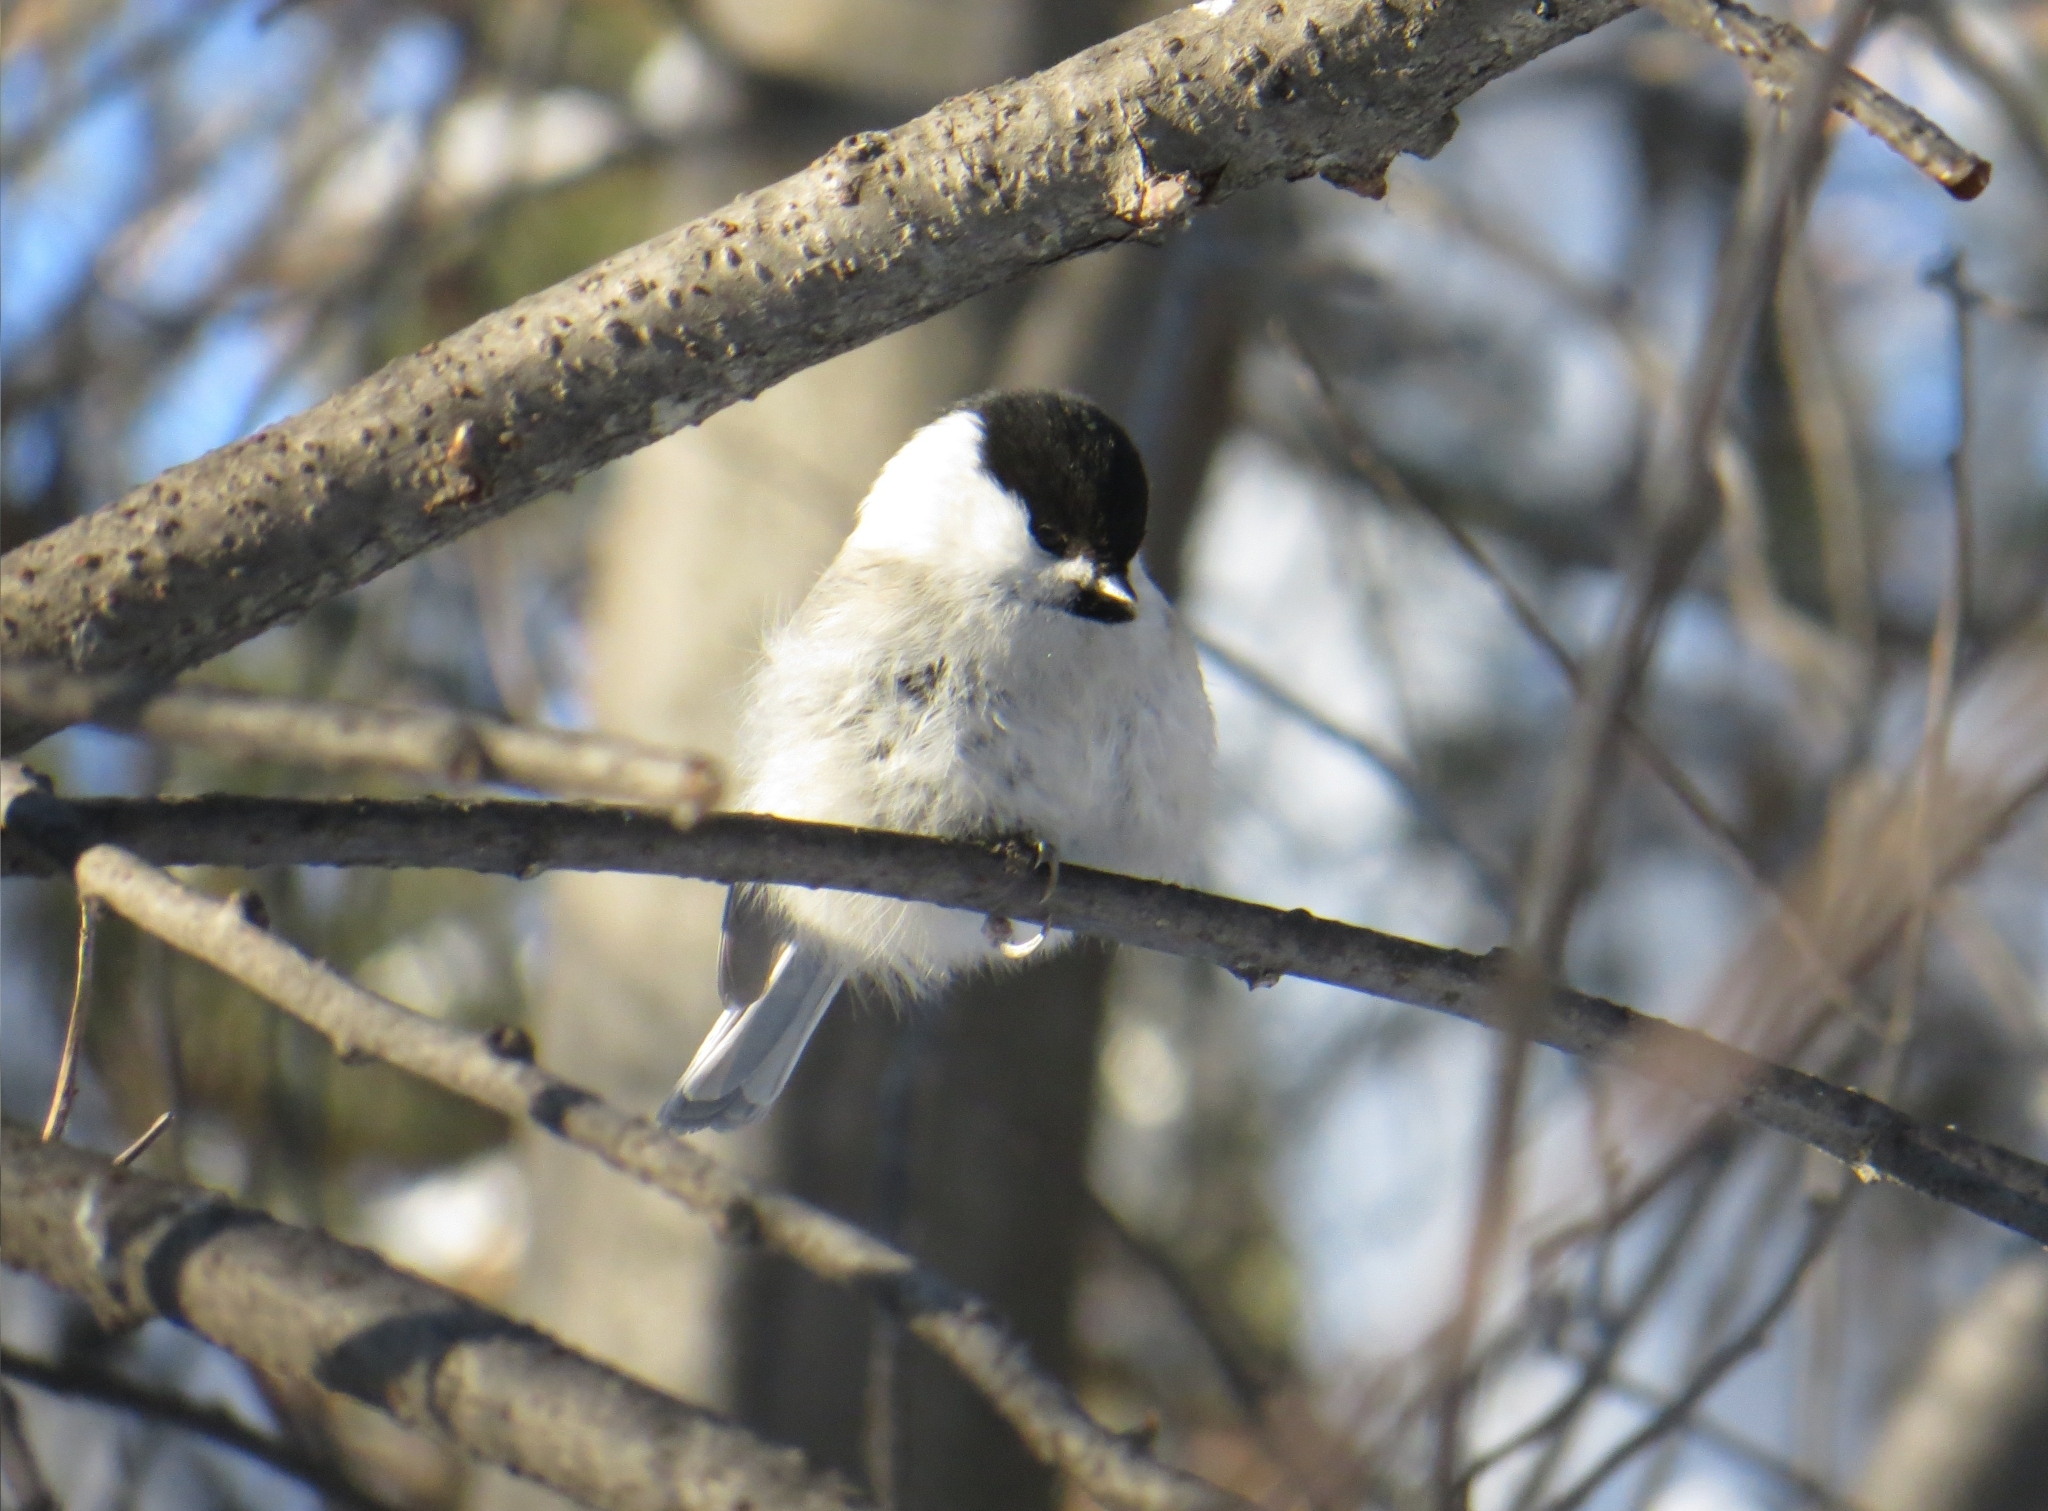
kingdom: Animalia
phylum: Chordata
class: Aves
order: Passeriformes
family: Paridae
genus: Poecile
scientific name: Poecile montanus
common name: Willow tit
